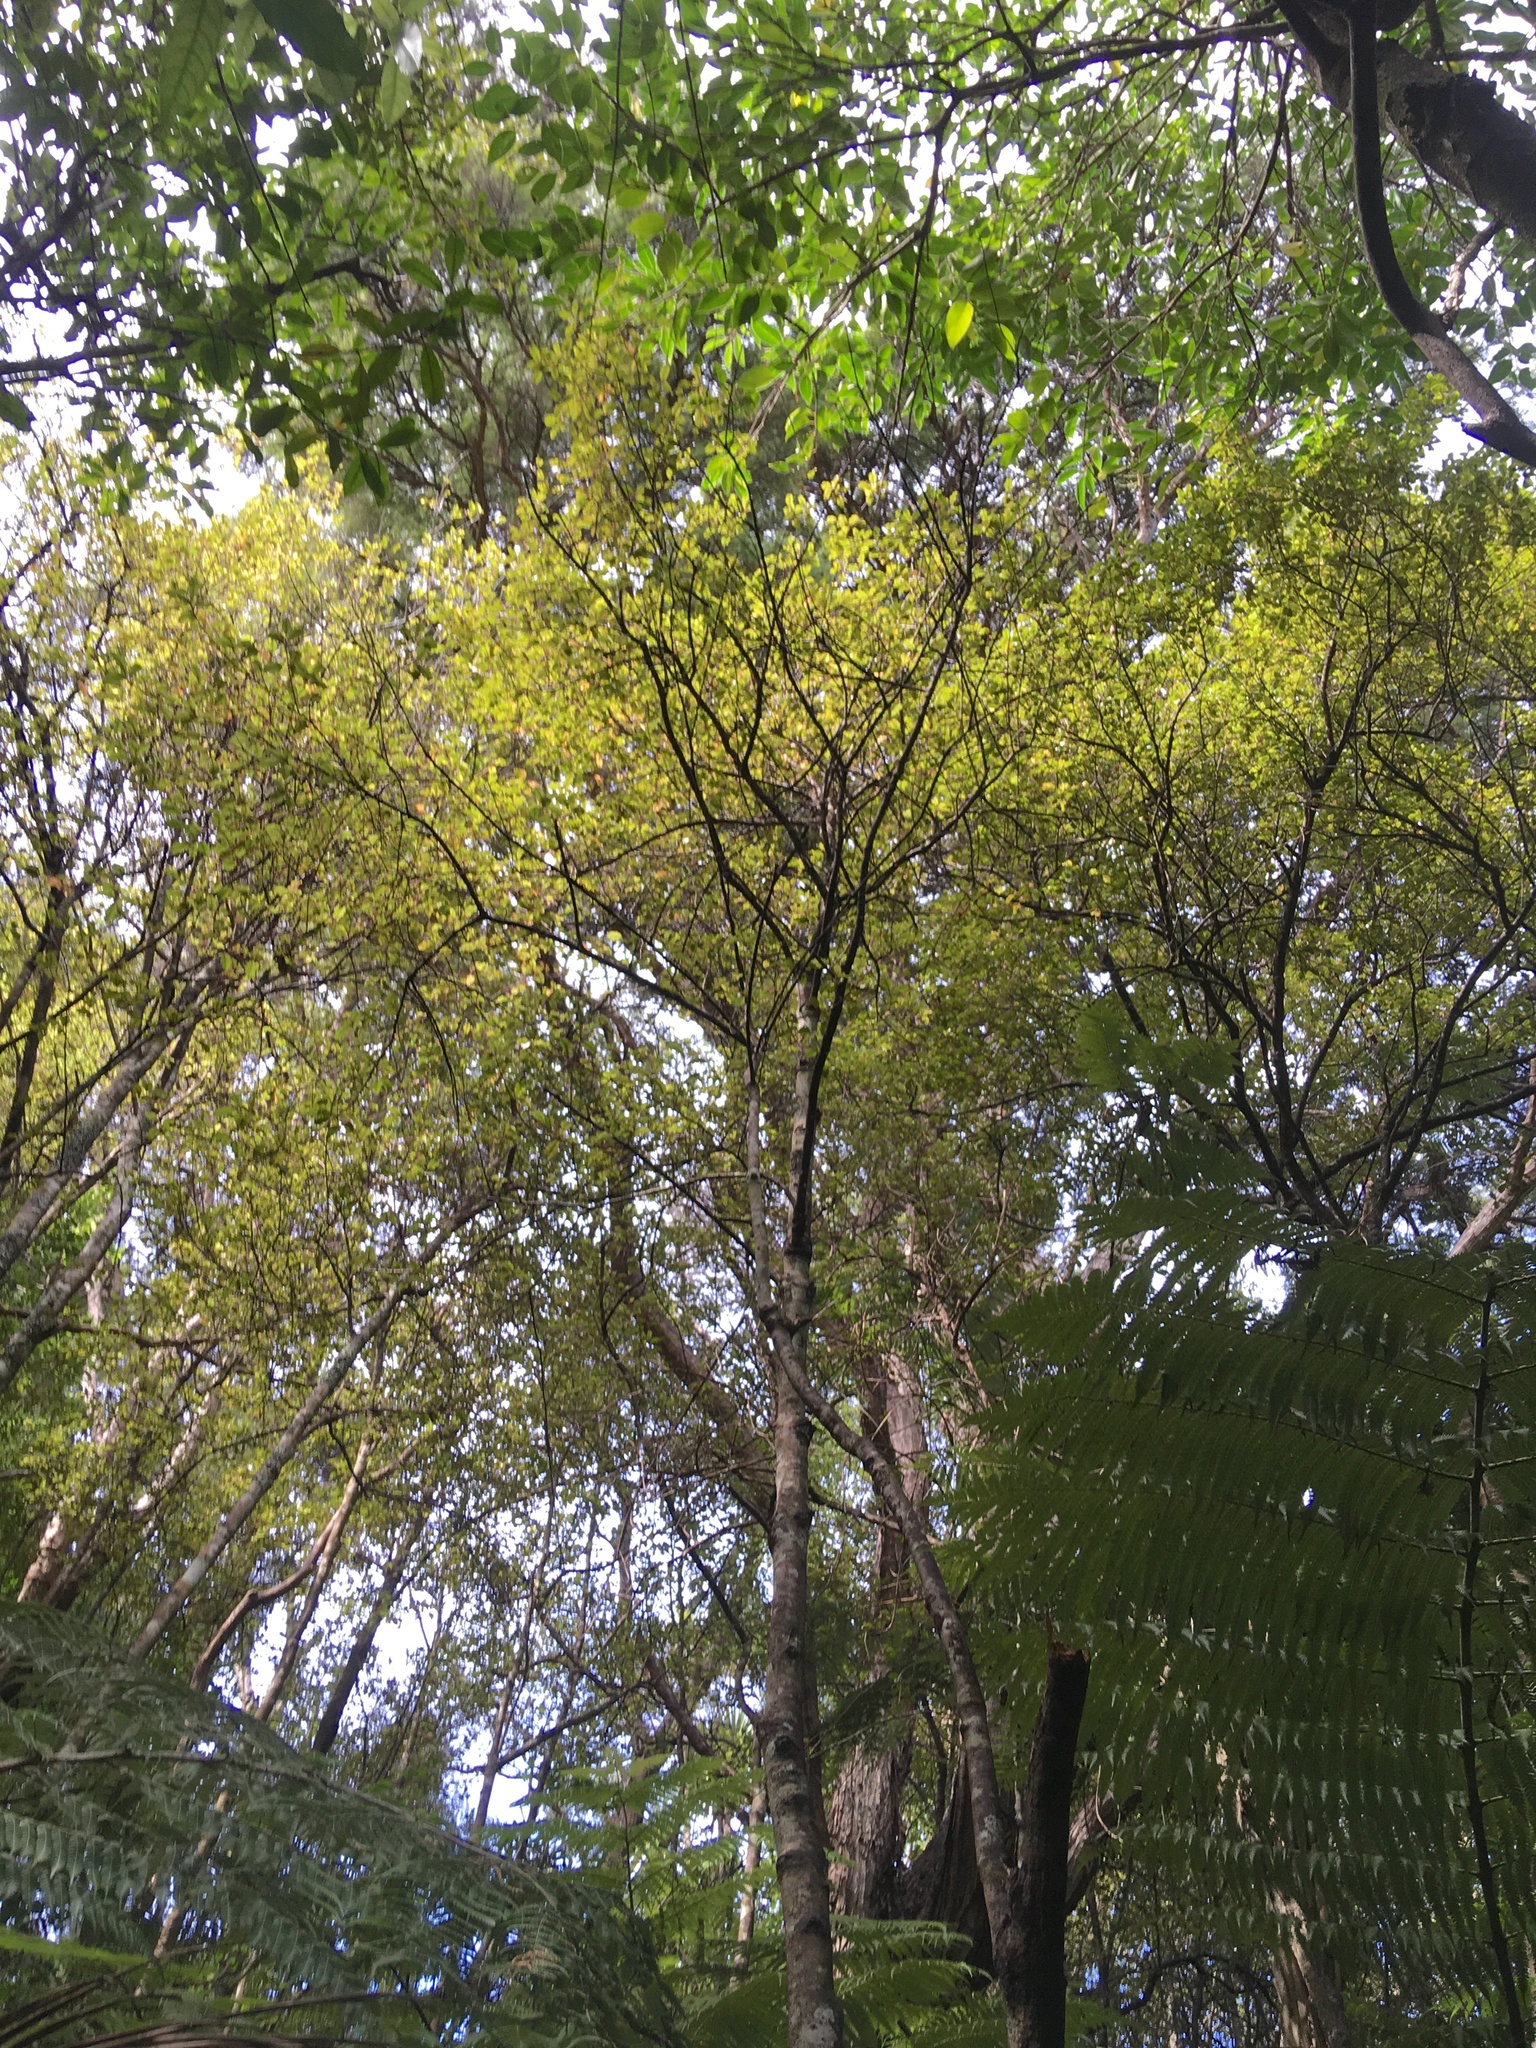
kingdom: Plantae
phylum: Tracheophyta
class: Magnoliopsida
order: Ericales
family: Primulaceae
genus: Myrsine
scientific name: Myrsine australis
